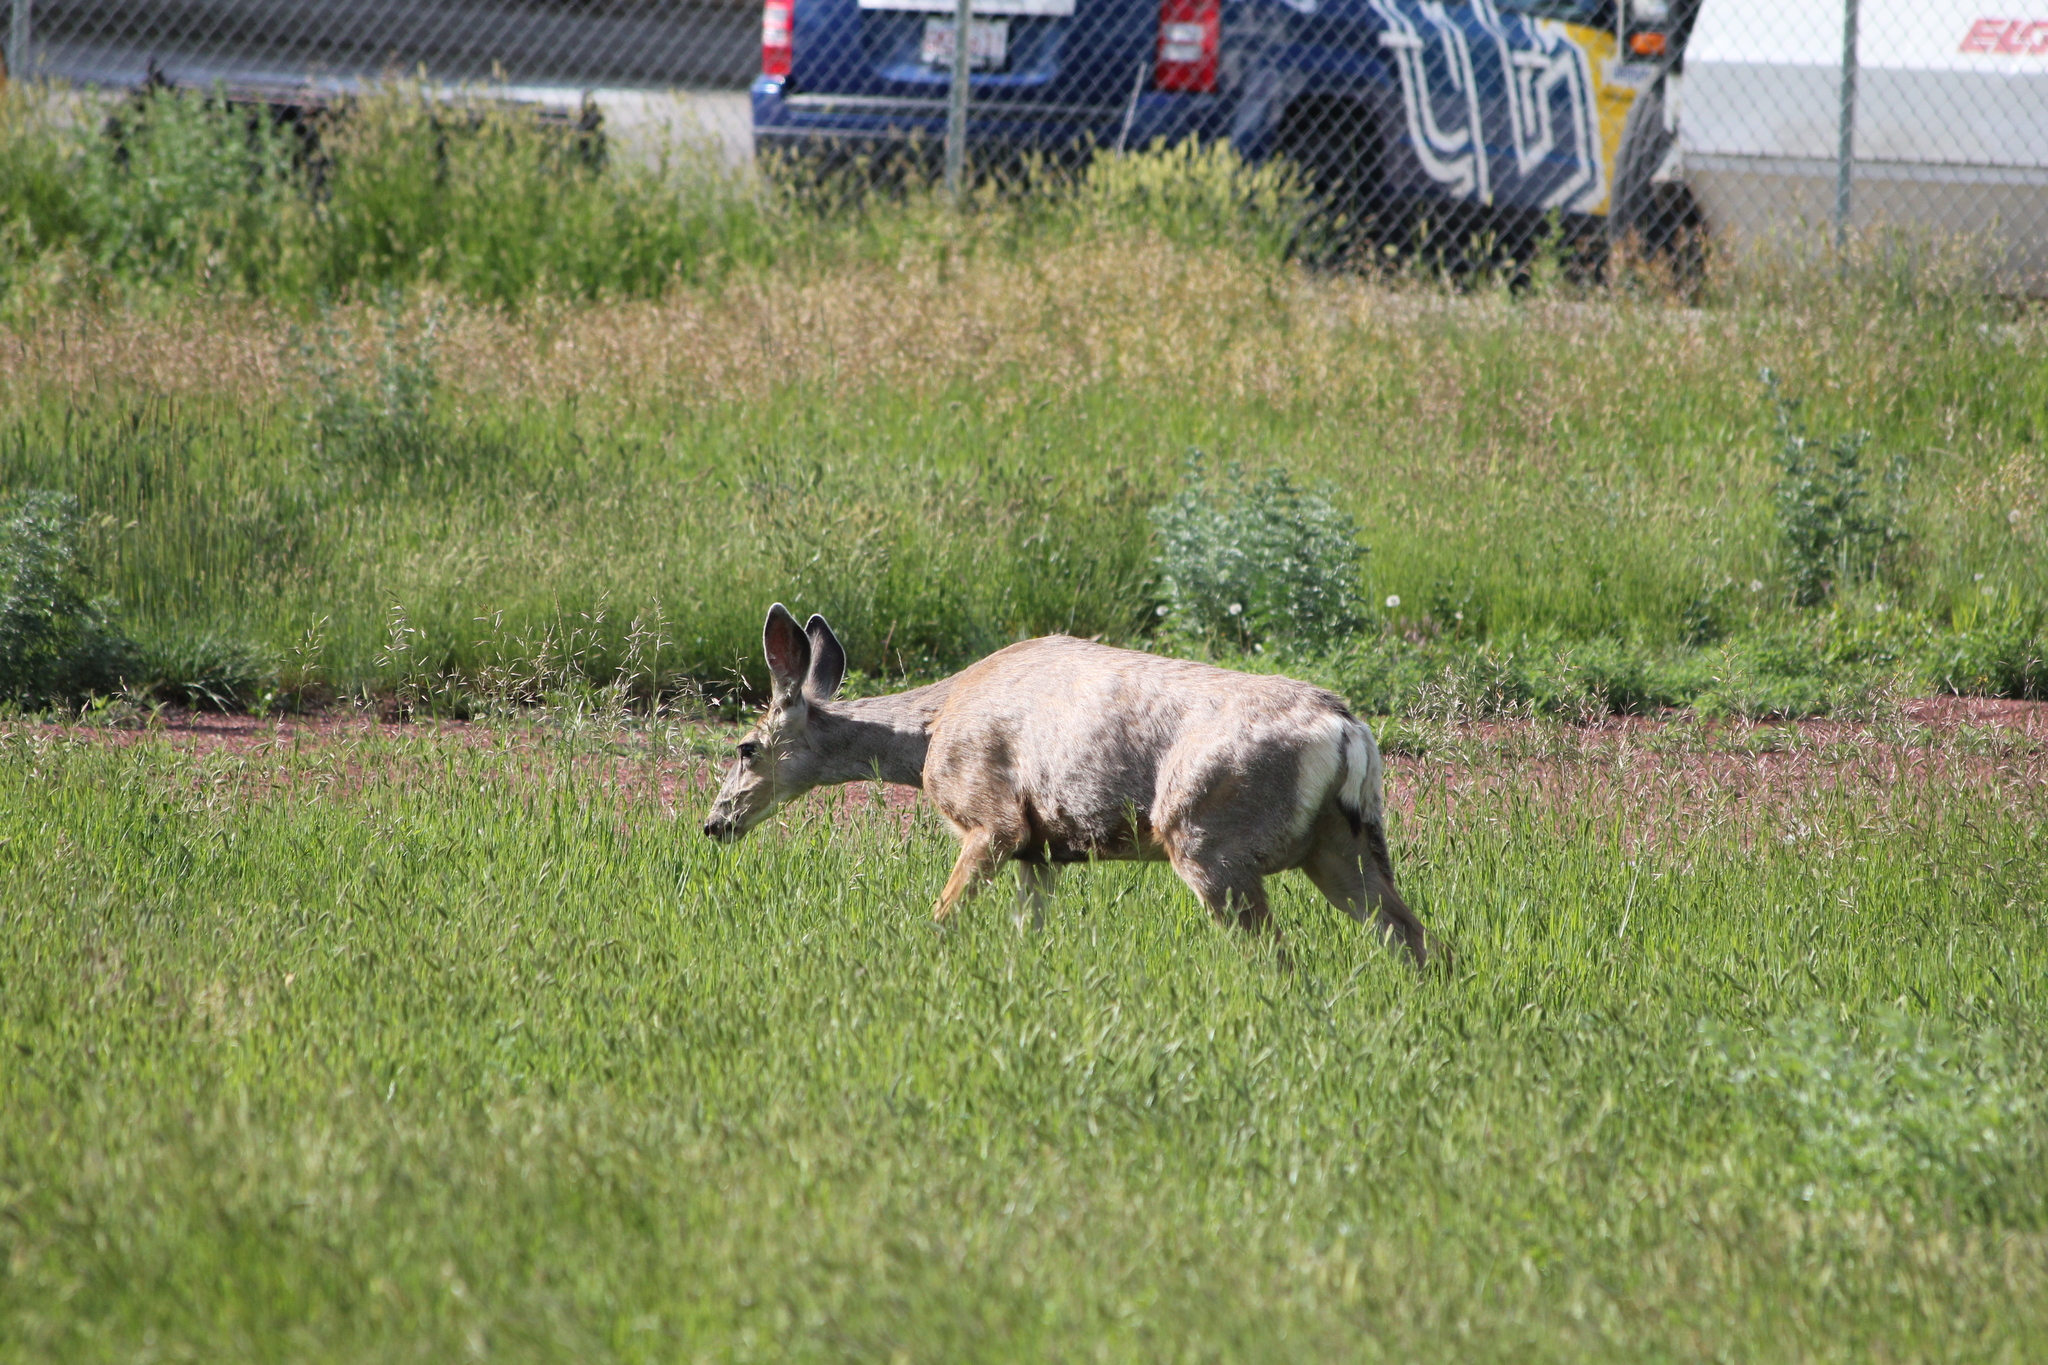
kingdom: Animalia
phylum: Chordata
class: Mammalia
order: Artiodactyla
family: Cervidae
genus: Odocoileus
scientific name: Odocoileus hemionus
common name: Mule deer
